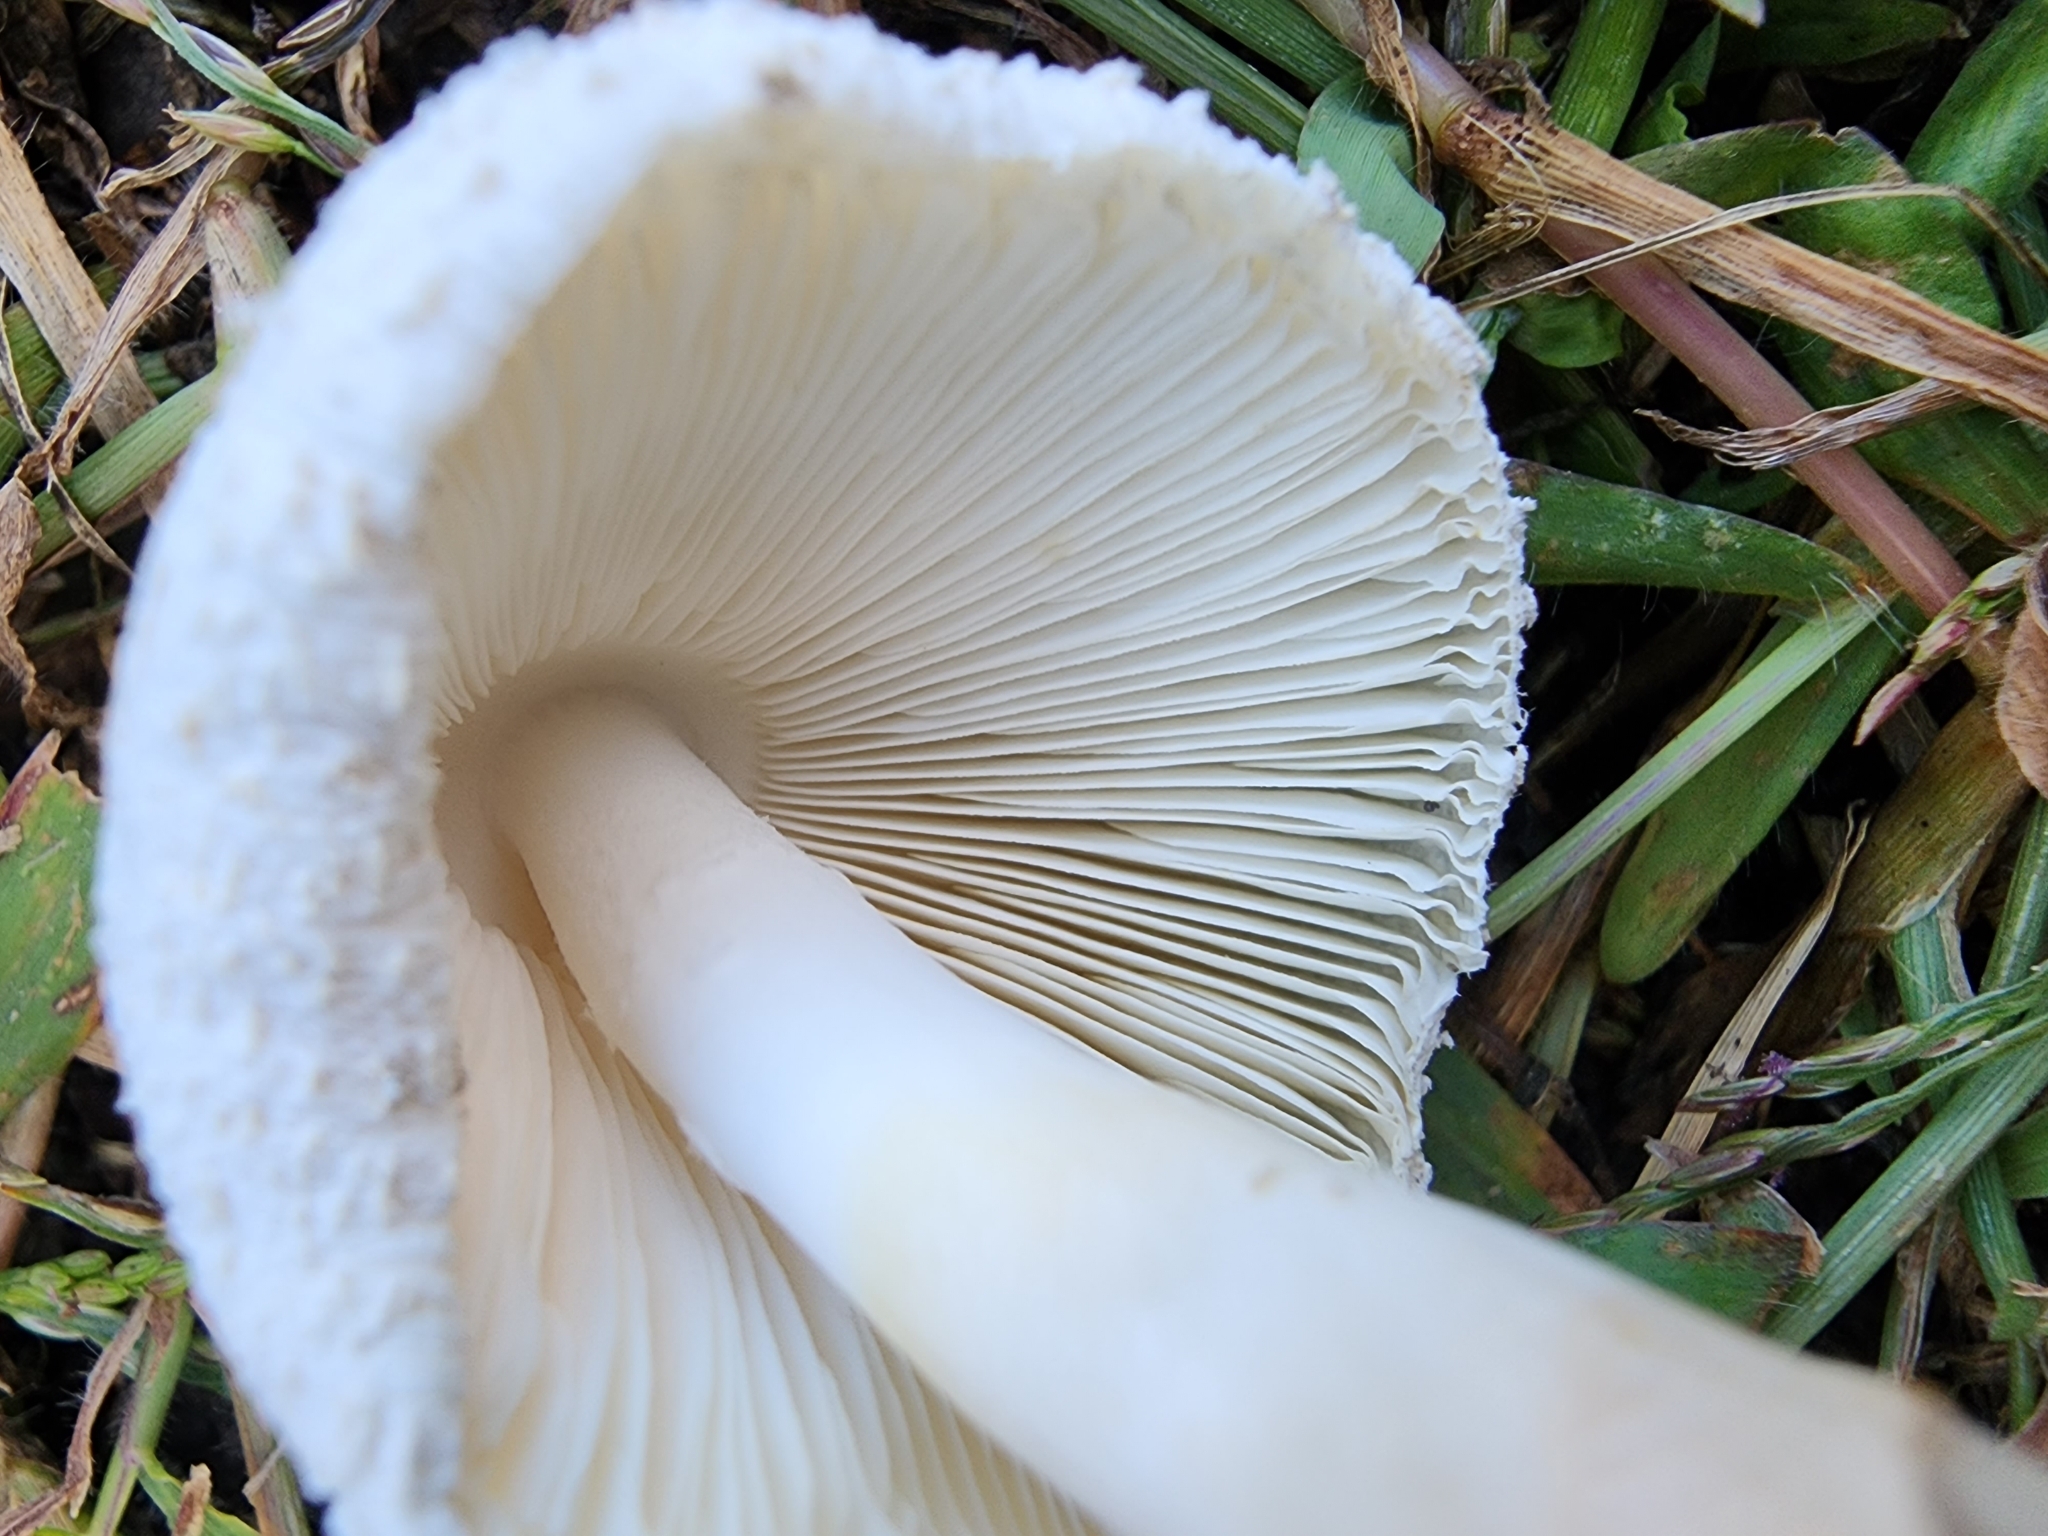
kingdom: Fungi
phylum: Basidiomycota
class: Agaricomycetes
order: Agaricales
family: Agaricaceae
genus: Leucoagaricus
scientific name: Leucoagaricus americanus
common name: Reddening lepiota
